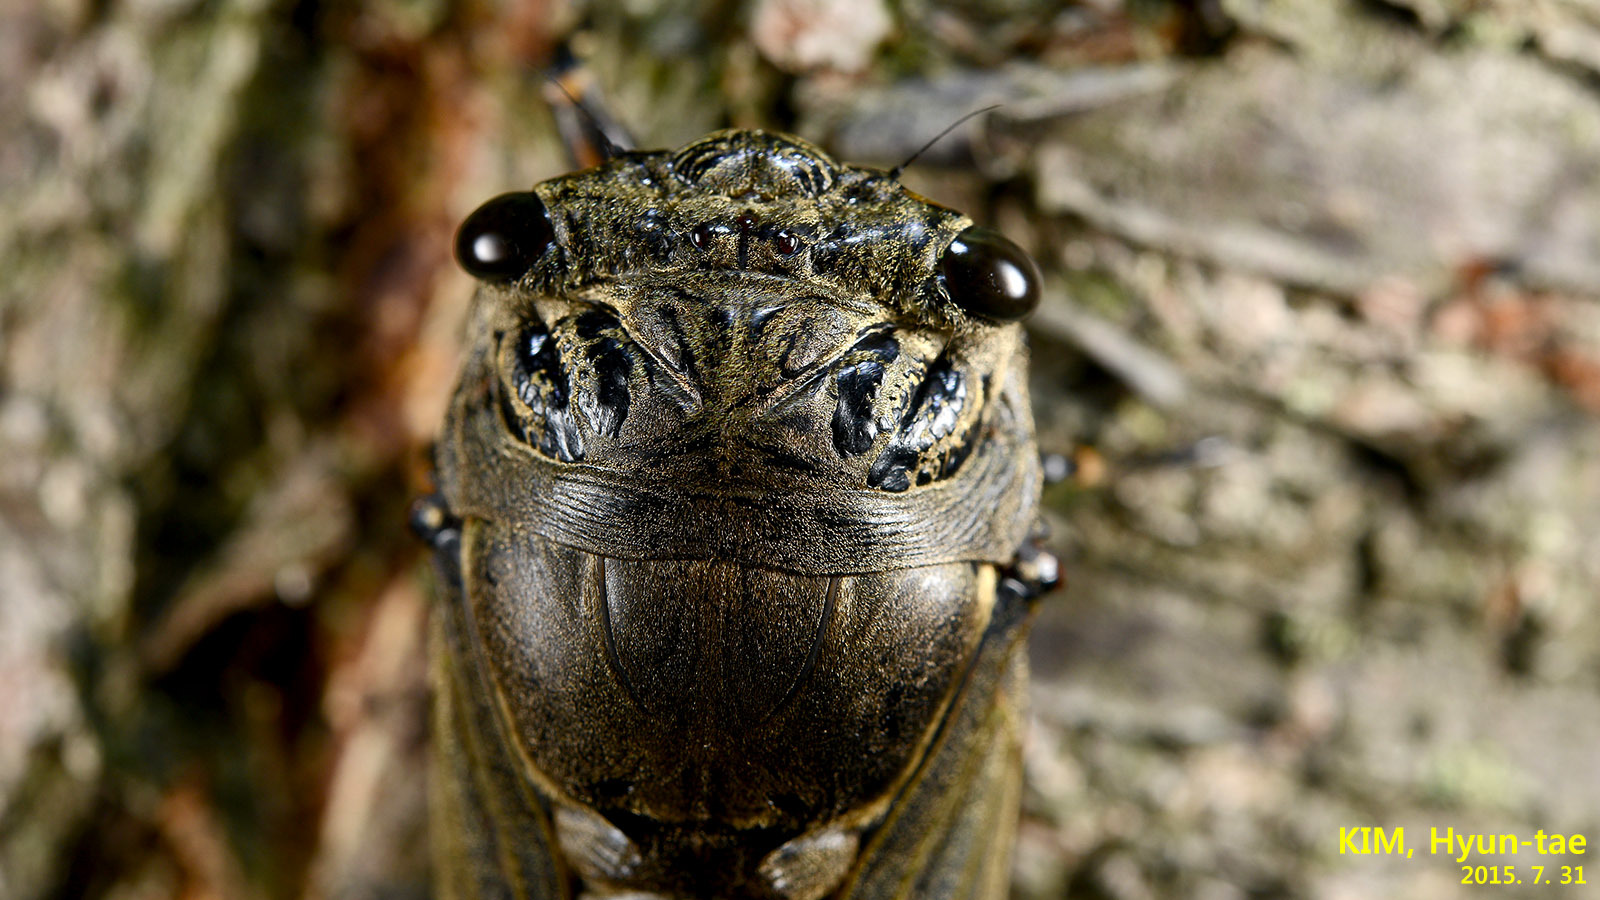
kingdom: Animalia
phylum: Arthropoda
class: Insecta
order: Hemiptera
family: Cicadidae
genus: Cryptotympana
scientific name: Cryptotympana atrata
